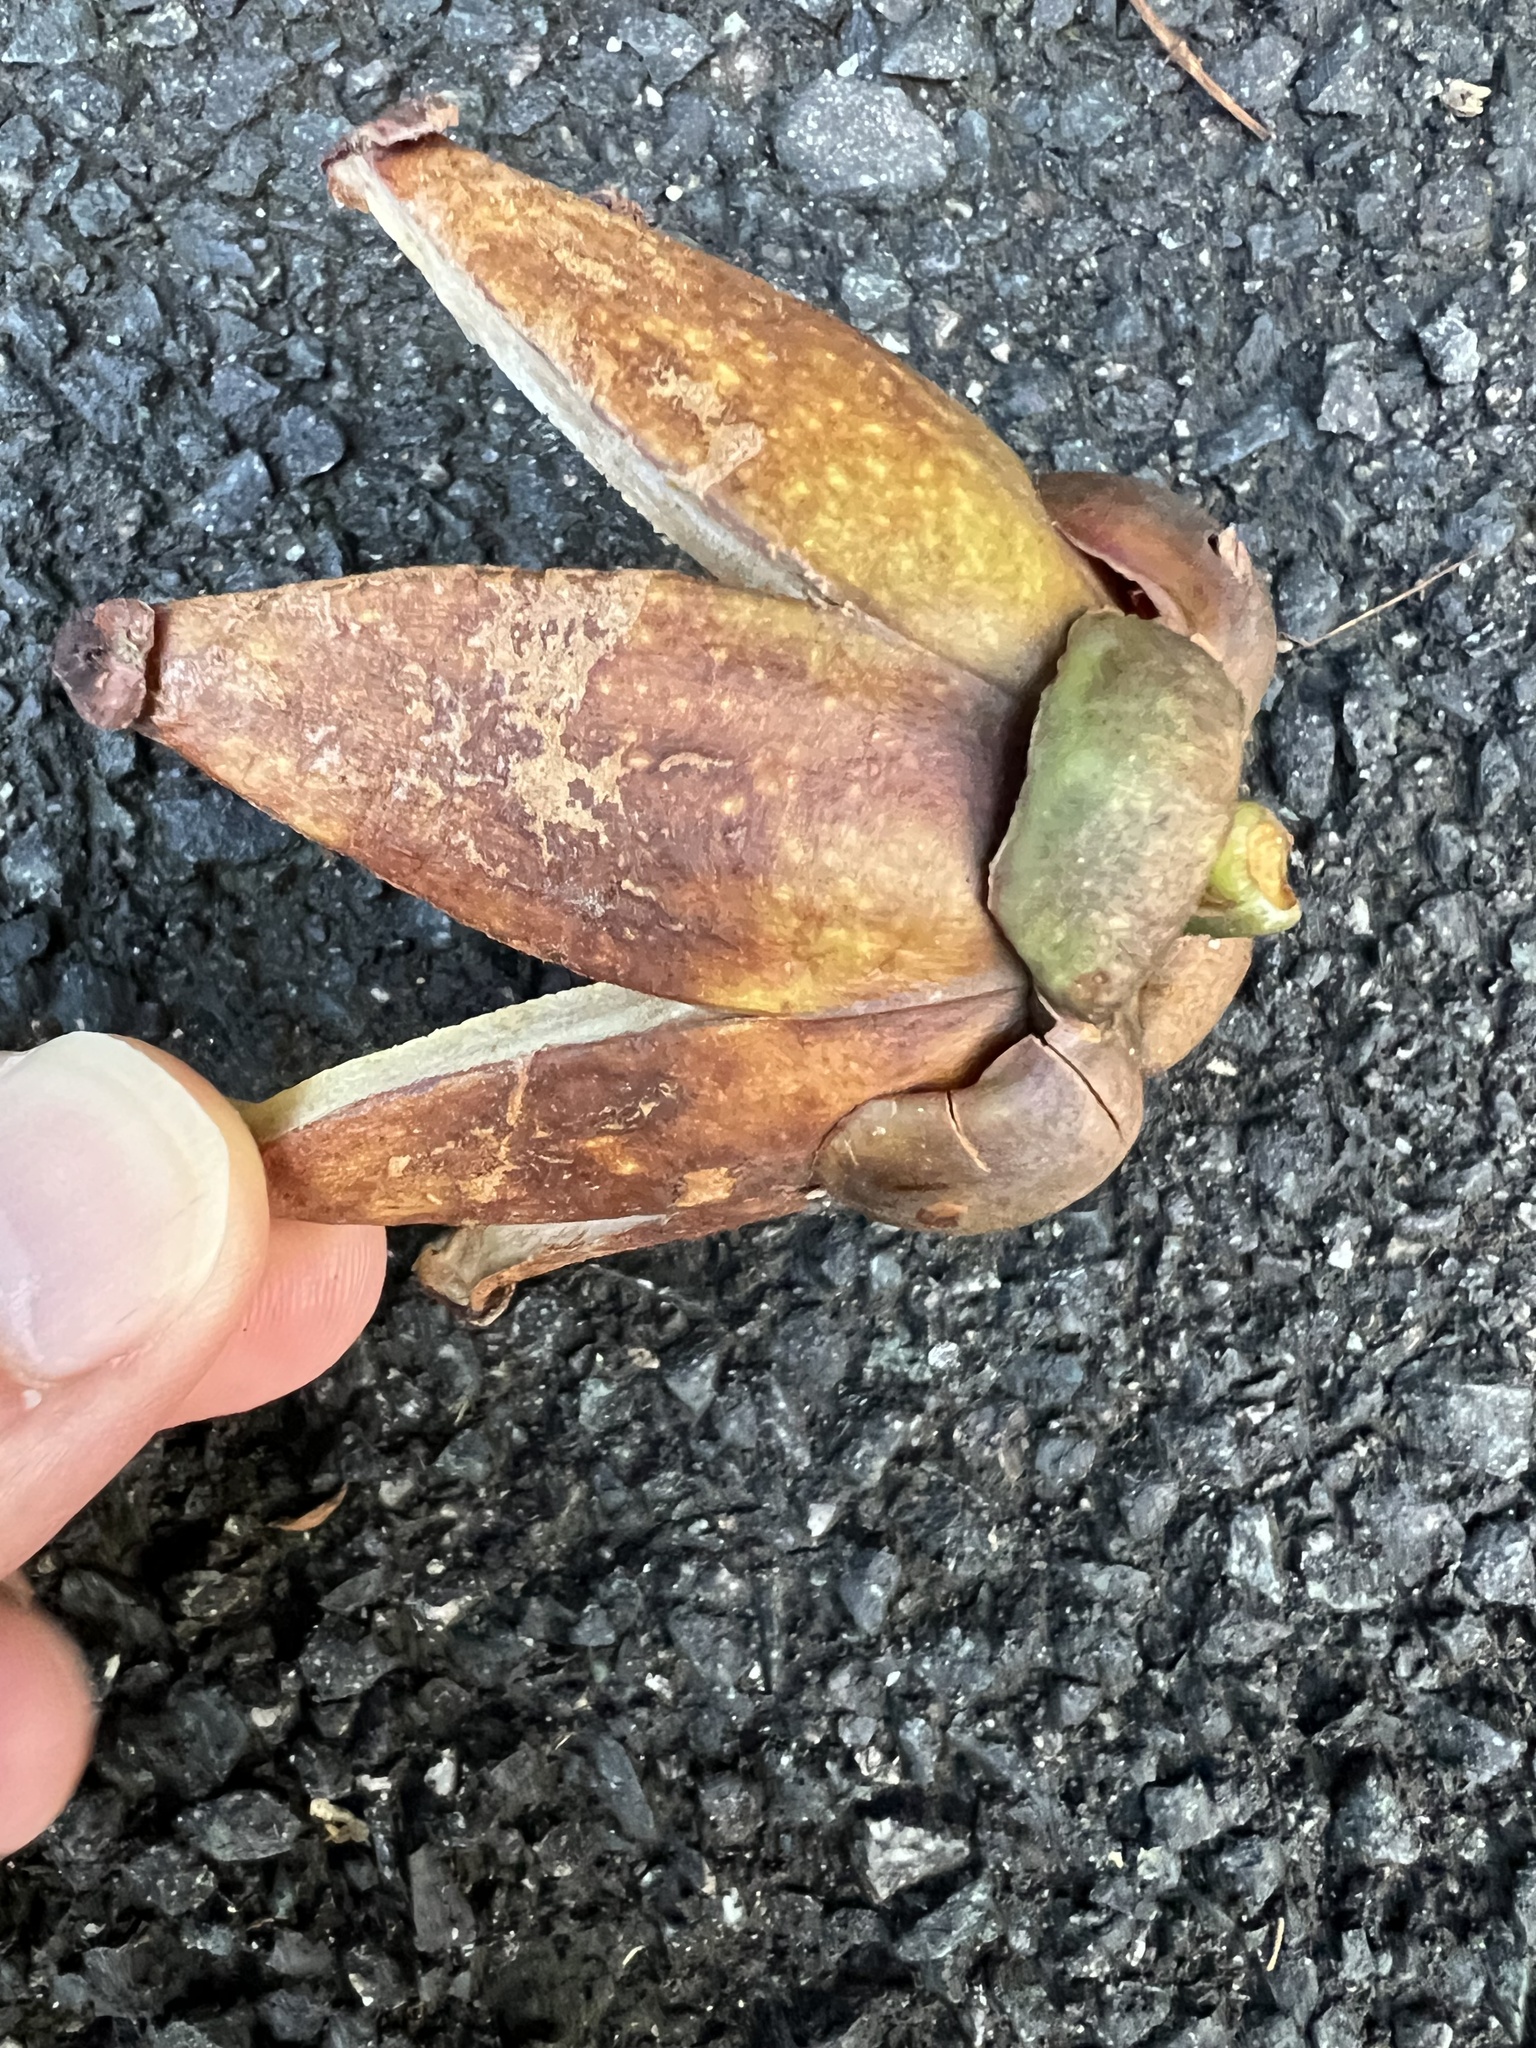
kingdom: Plantae
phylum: Tracheophyta
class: Magnoliopsida
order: Malpighiales
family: Clusiaceae
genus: Clusia
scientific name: Clusia rosea
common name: Scotch attorney
